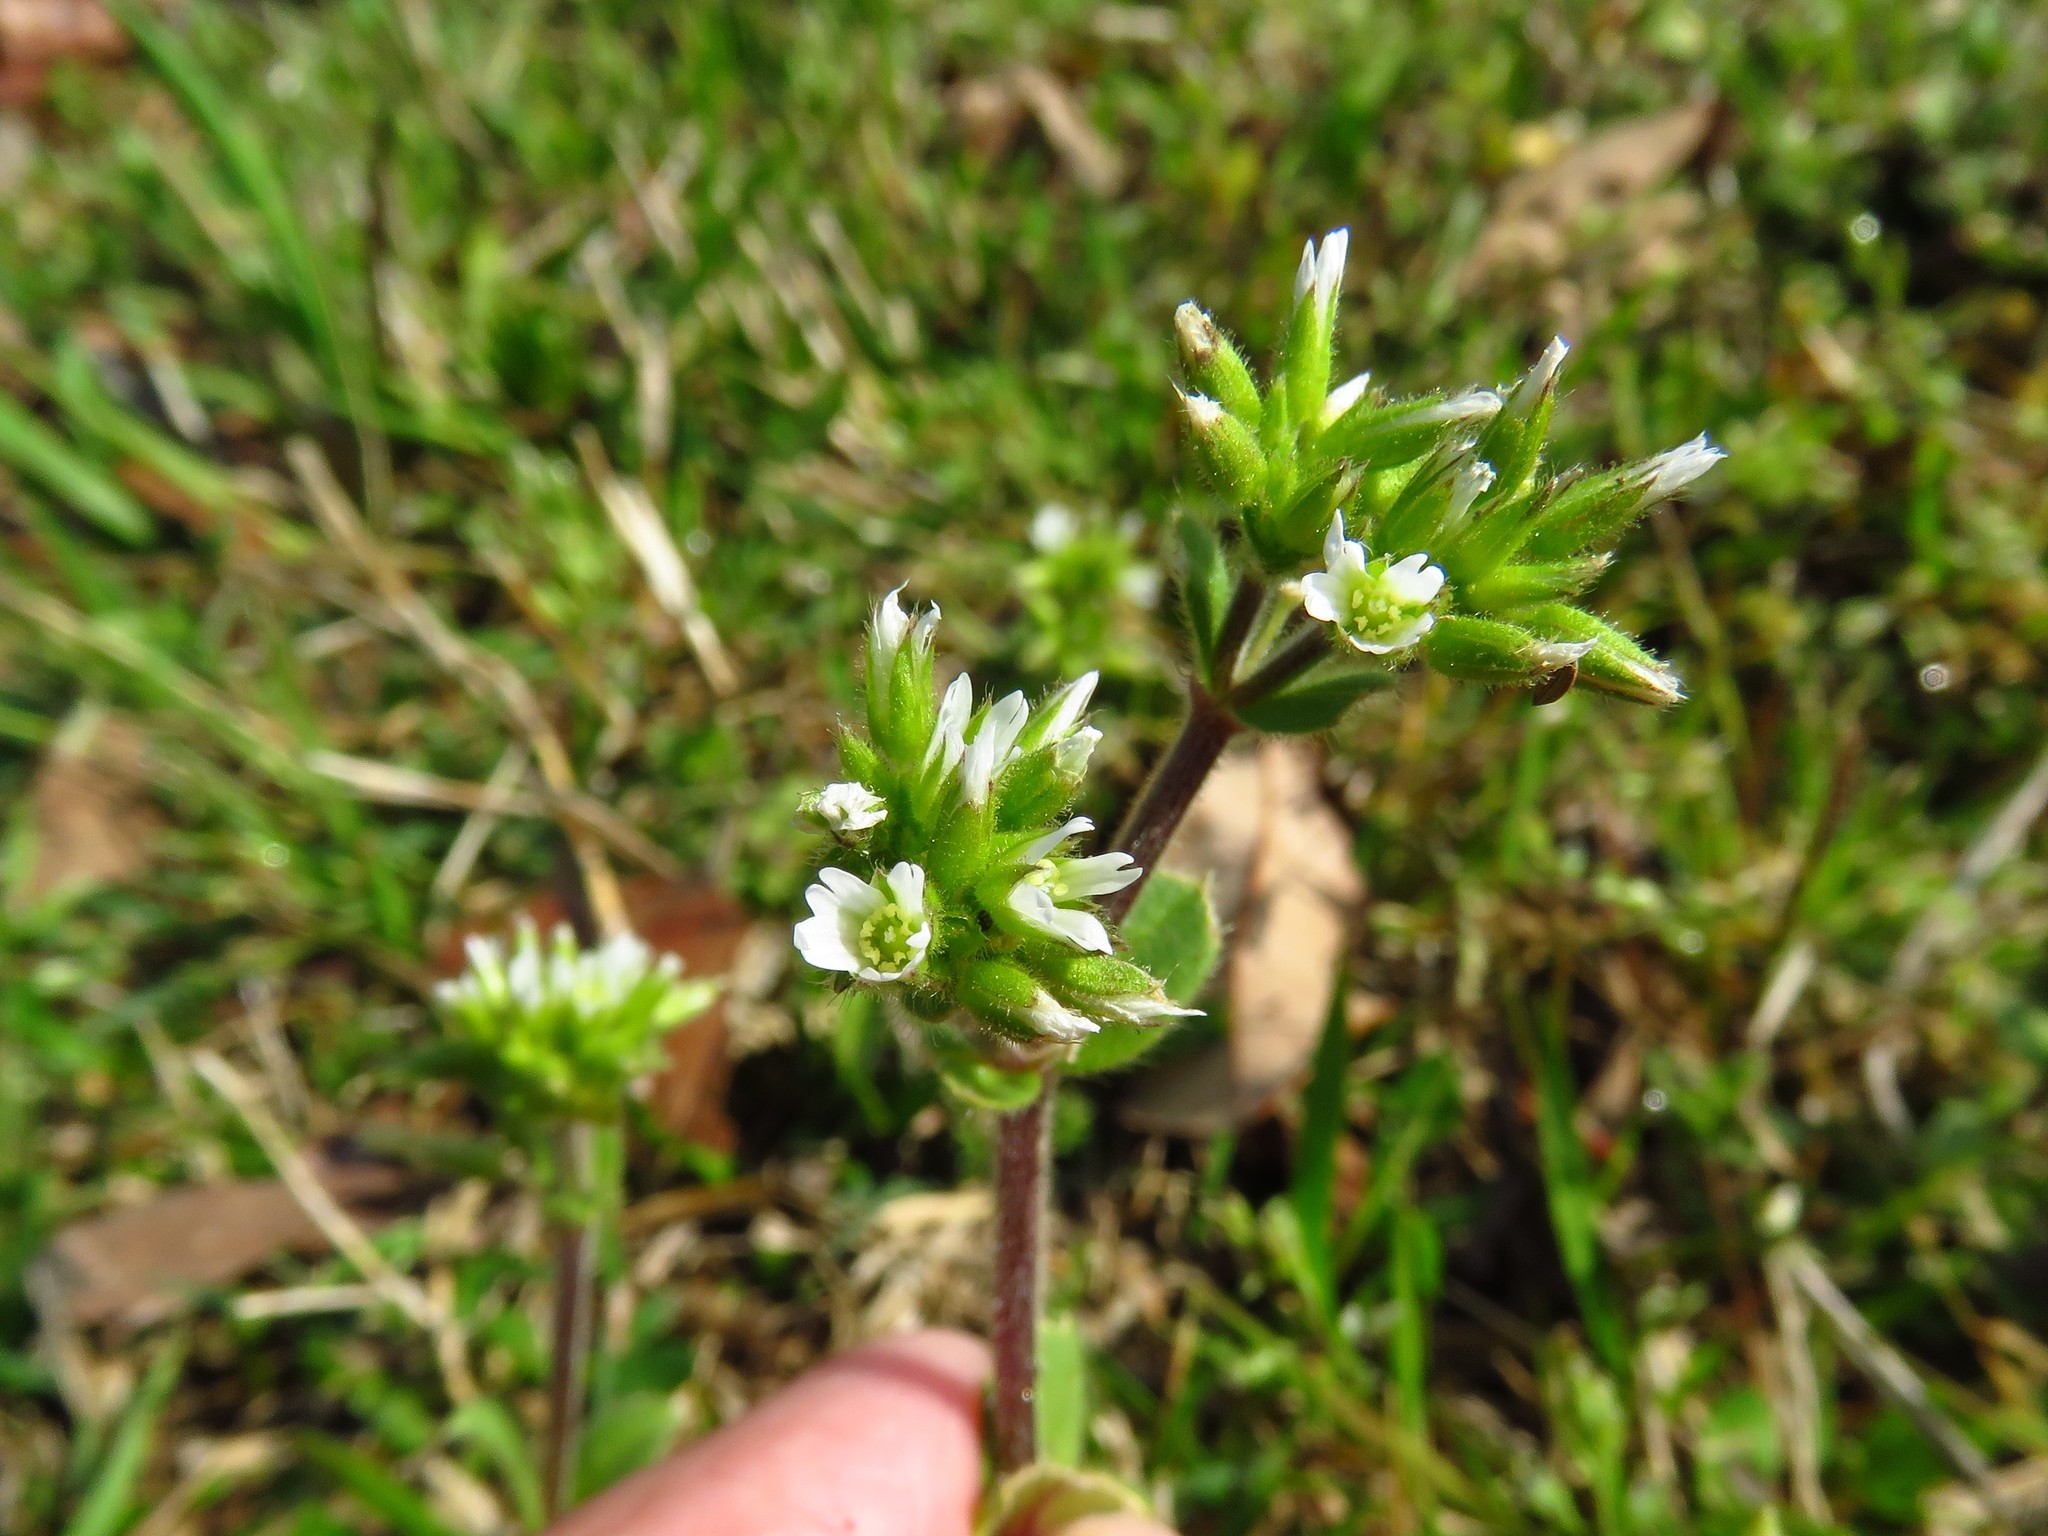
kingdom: Plantae
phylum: Tracheophyta
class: Magnoliopsida
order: Caryophyllales
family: Caryophyllaceae
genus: Cerastium
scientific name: Cerastium glomeratum
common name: Sticky chickweed
